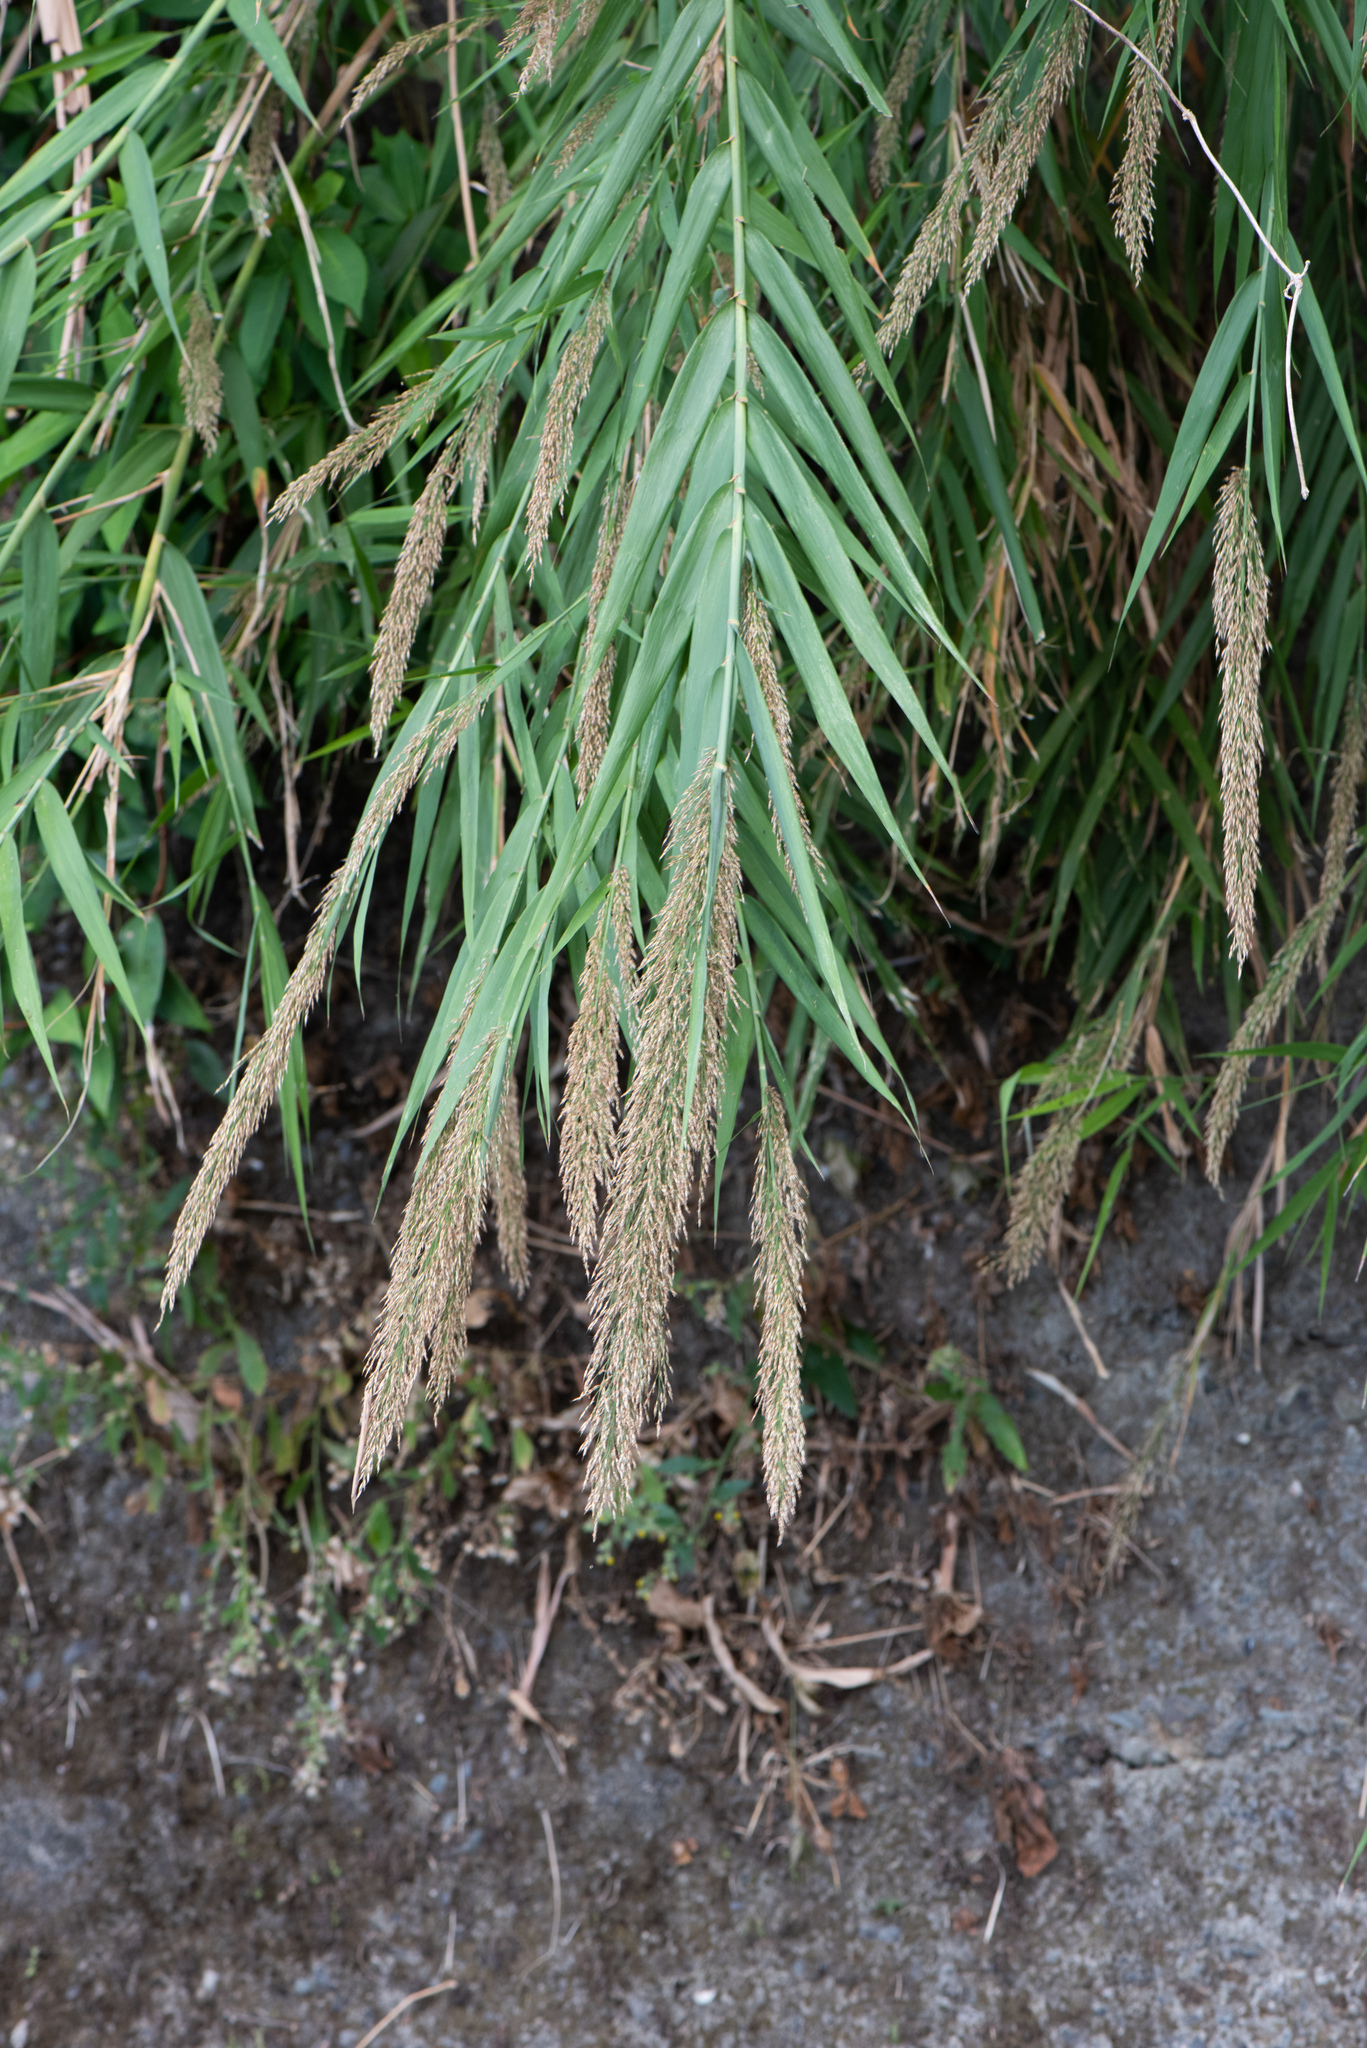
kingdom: Plantae
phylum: Tracheophyta
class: Liliopsida
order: Poales
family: Poaceae
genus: Arundo
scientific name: Arundo formosana
